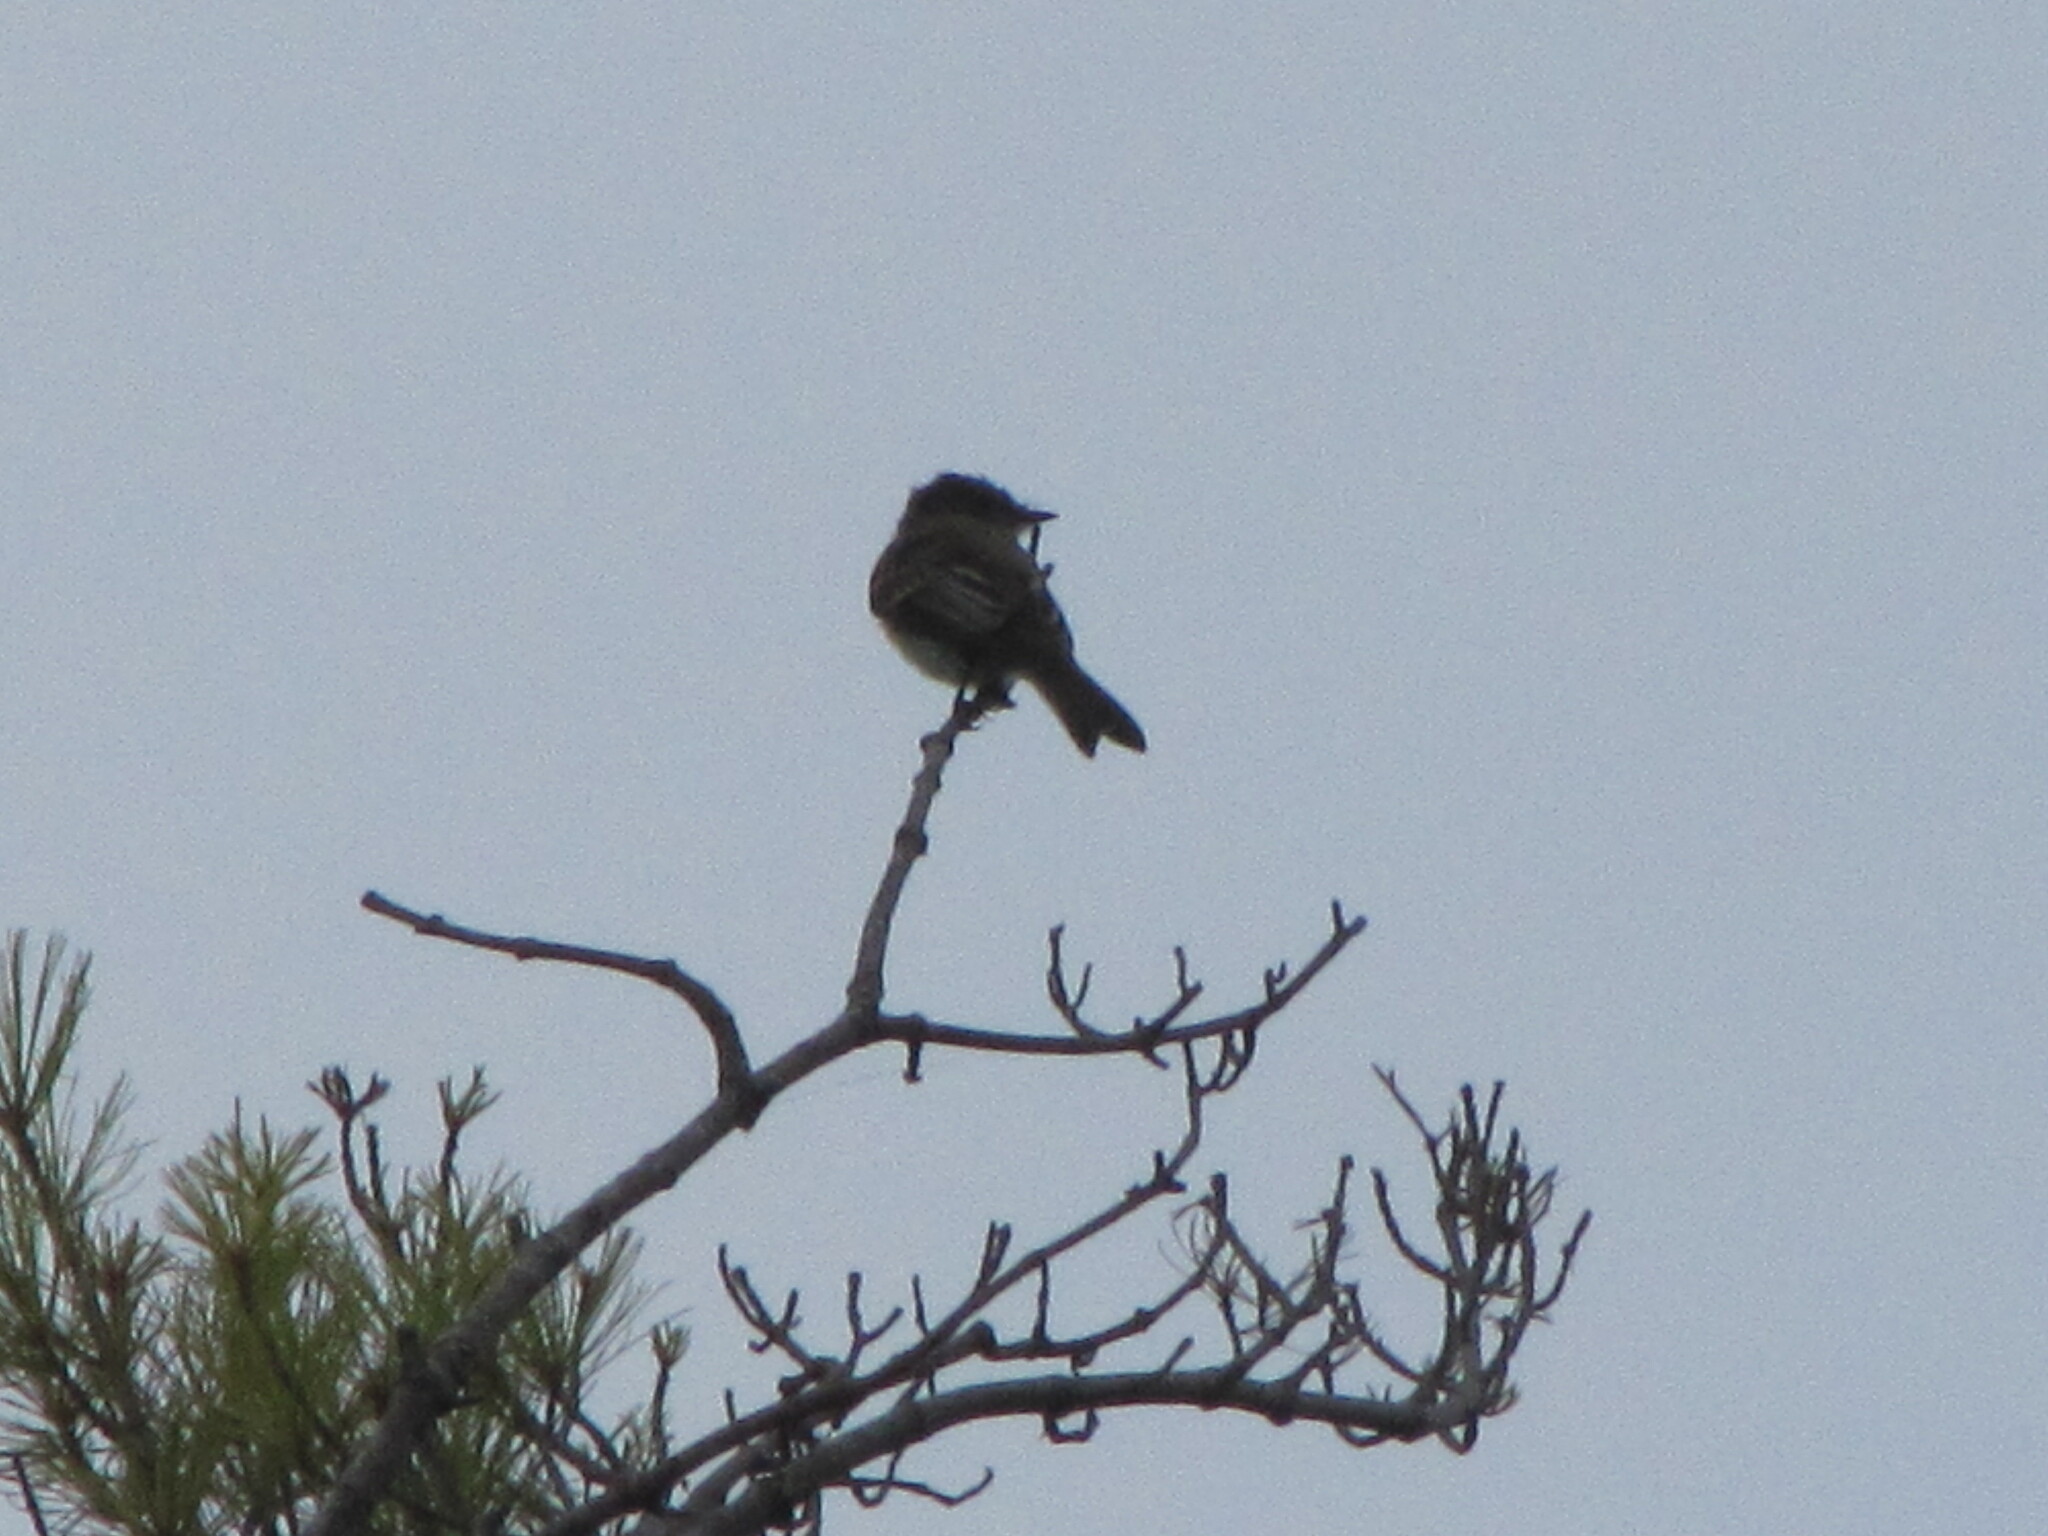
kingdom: Animalia
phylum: Chordata
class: Aves
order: Passeriformes
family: Tyrannidae
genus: Sayornis
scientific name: Sayornis phoebe
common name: Eastern phoebe
